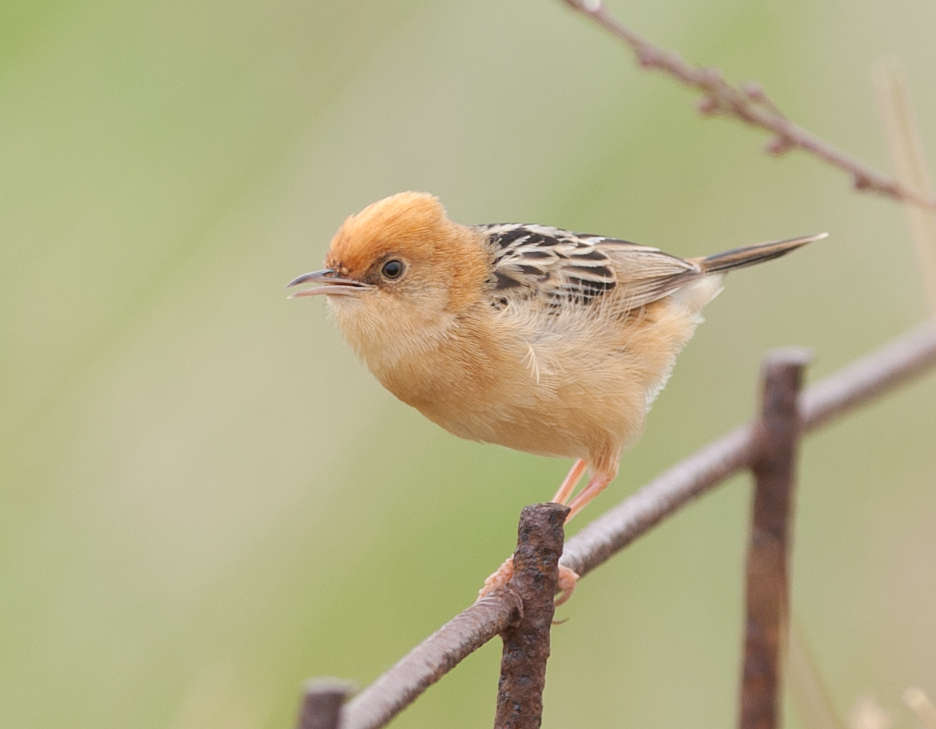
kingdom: Animalia
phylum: Chordata
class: Aves
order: Passeriformes
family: Cisticolidae
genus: Cisticola
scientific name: Cisticola exilis
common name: Golden-headed cisticola
